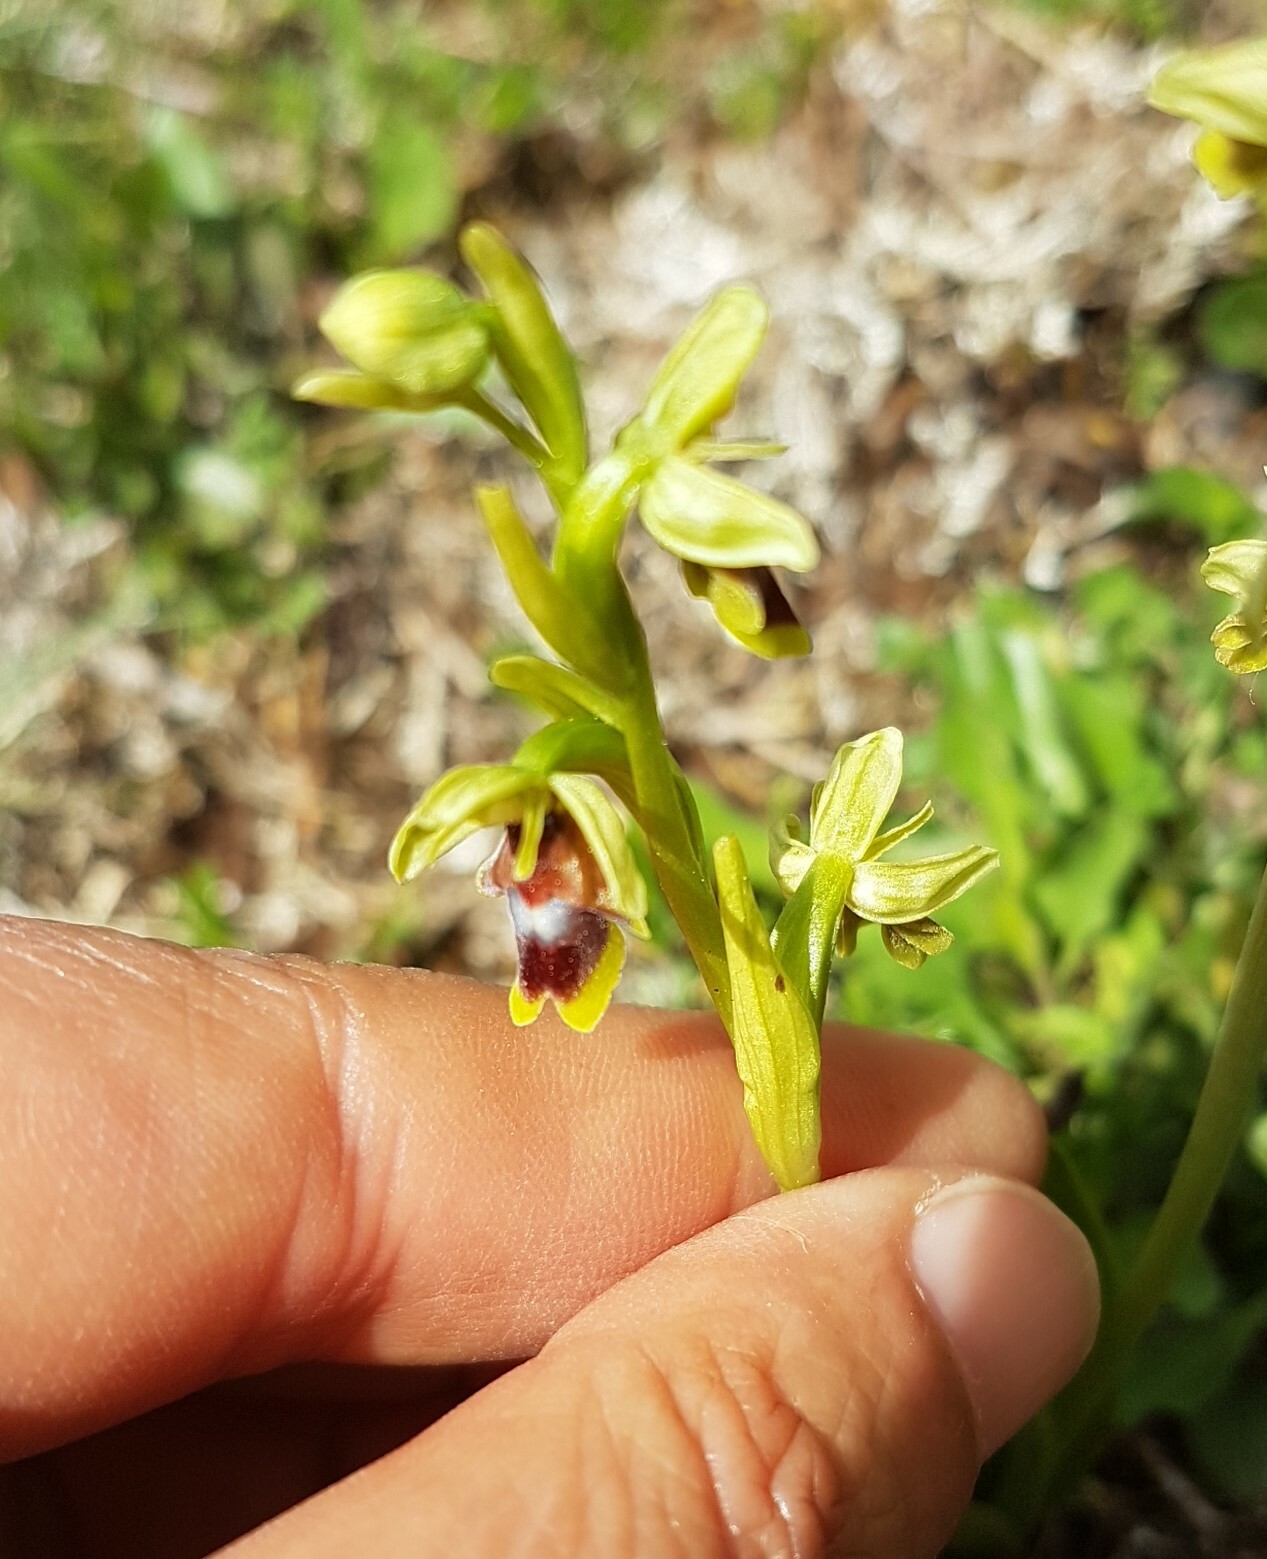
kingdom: Plantae
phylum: Tracheophyta
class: Liliopsida
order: Asparagales
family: Orchidaceae
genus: Ophrys
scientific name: Ophrys insectifera
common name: Fly orchid
